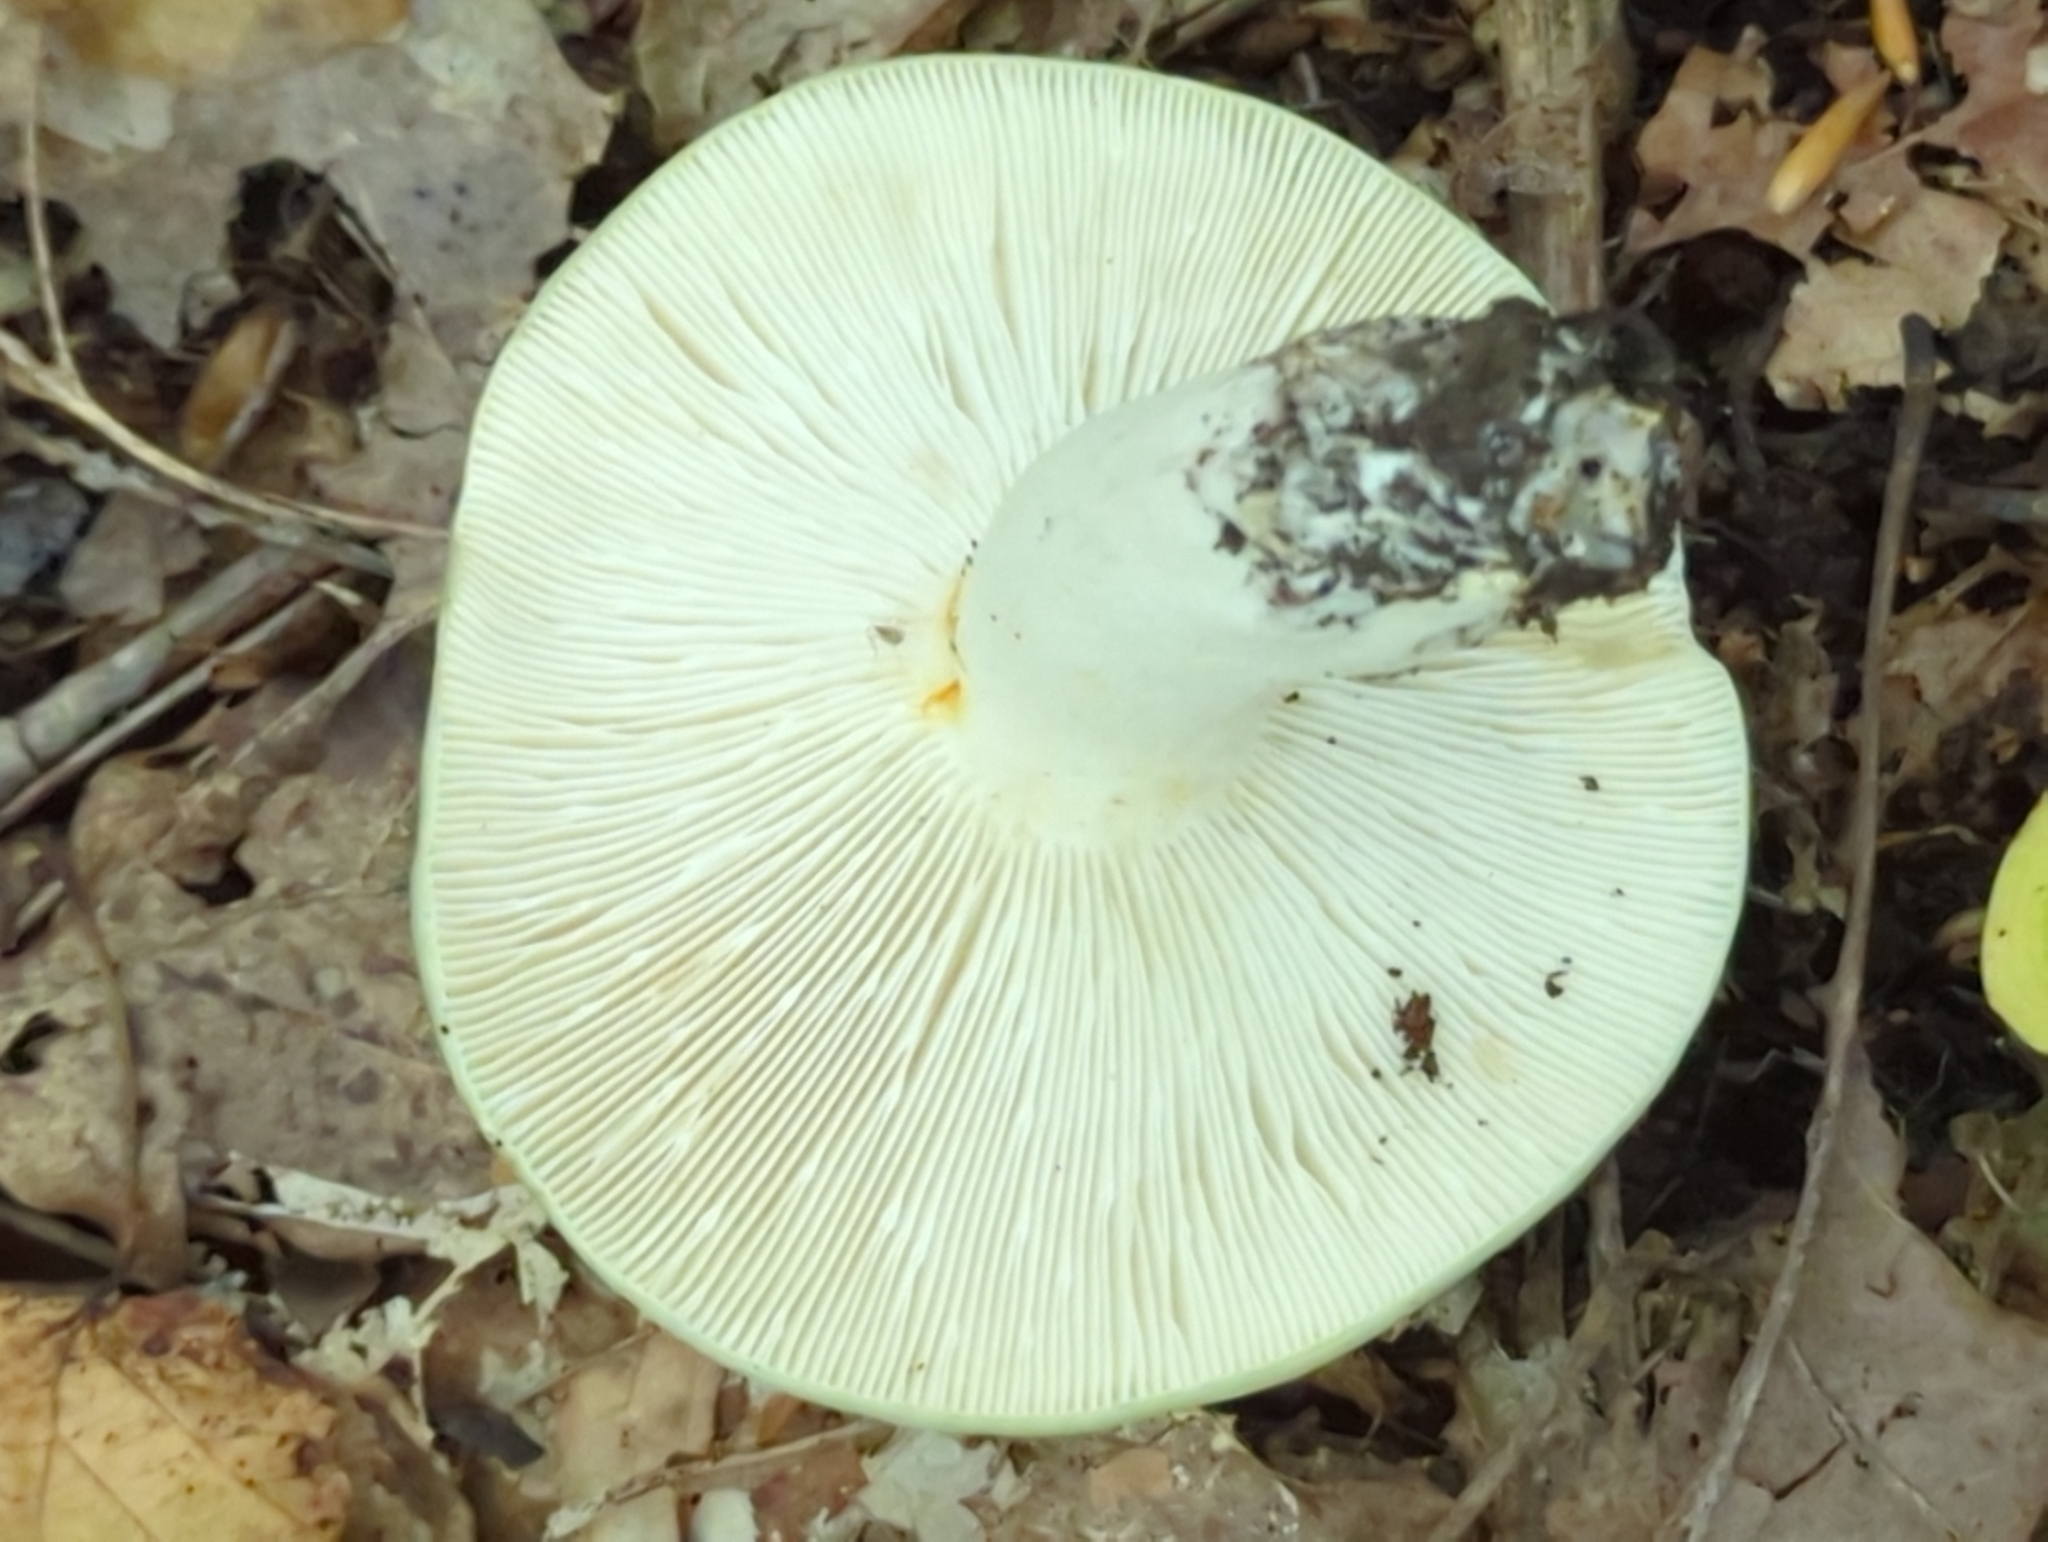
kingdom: Fungi
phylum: Basidiomycota
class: Agaricomycetes
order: Russulales
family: Russulaceae
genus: Russula
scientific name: Russula cyanoxantha
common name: Charcoal burner
